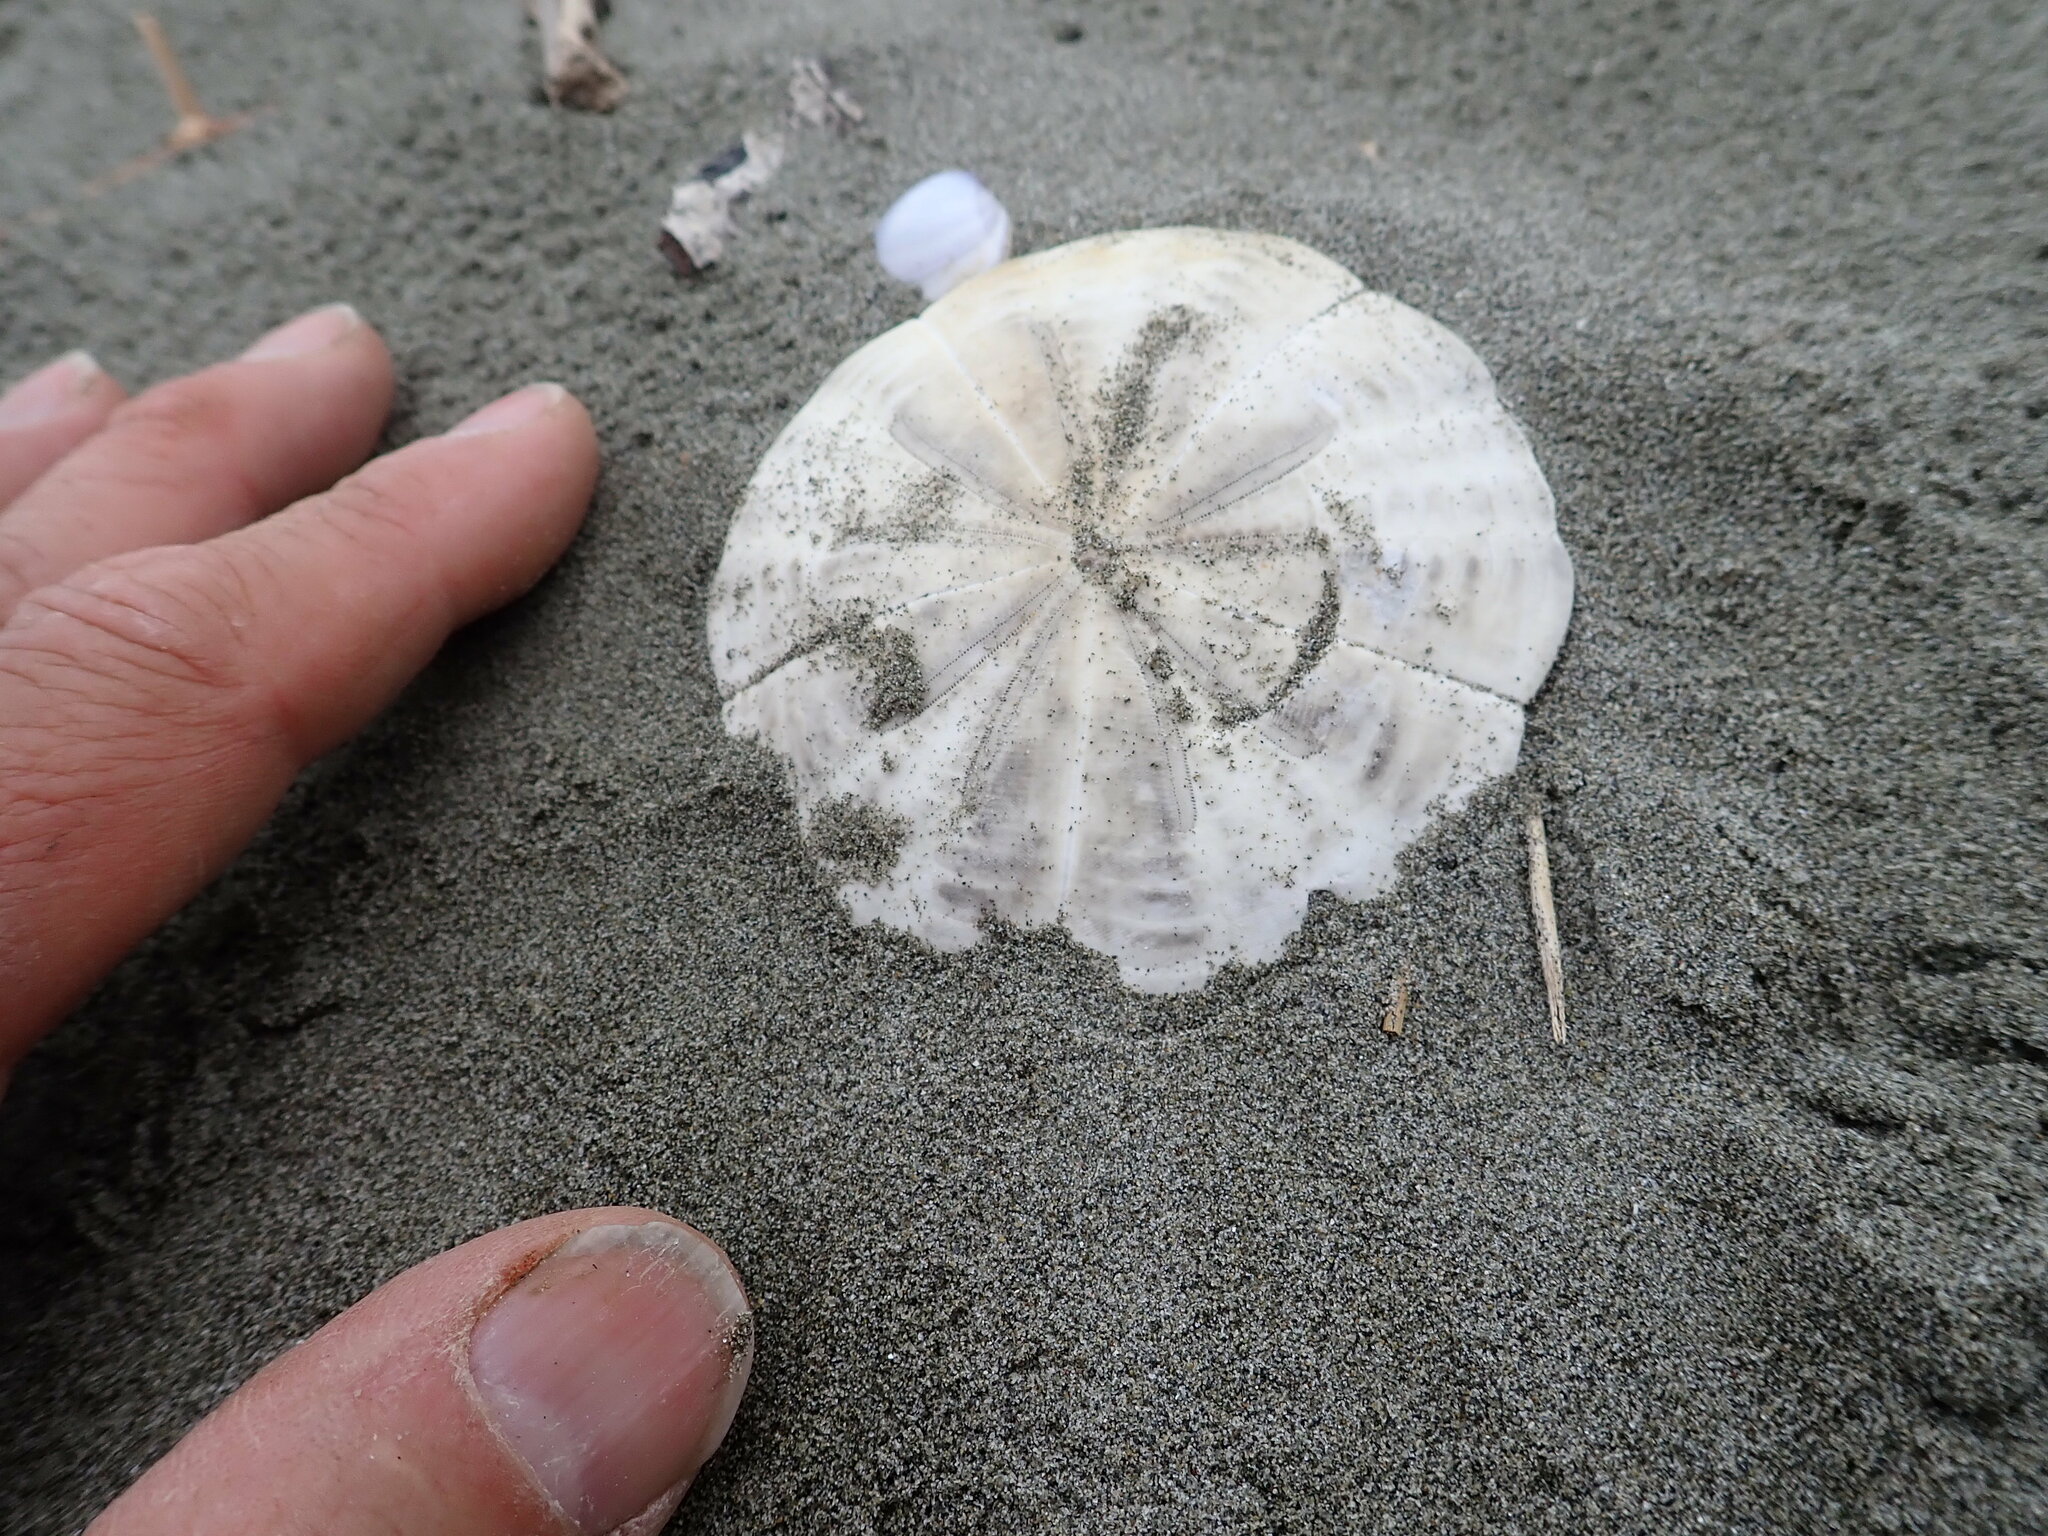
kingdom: Animalia
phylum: Echinodermata
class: Echinoidea
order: Clypeasteroida
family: Clypeasteridae
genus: Fellaster
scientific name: Fellaster zelandiae
